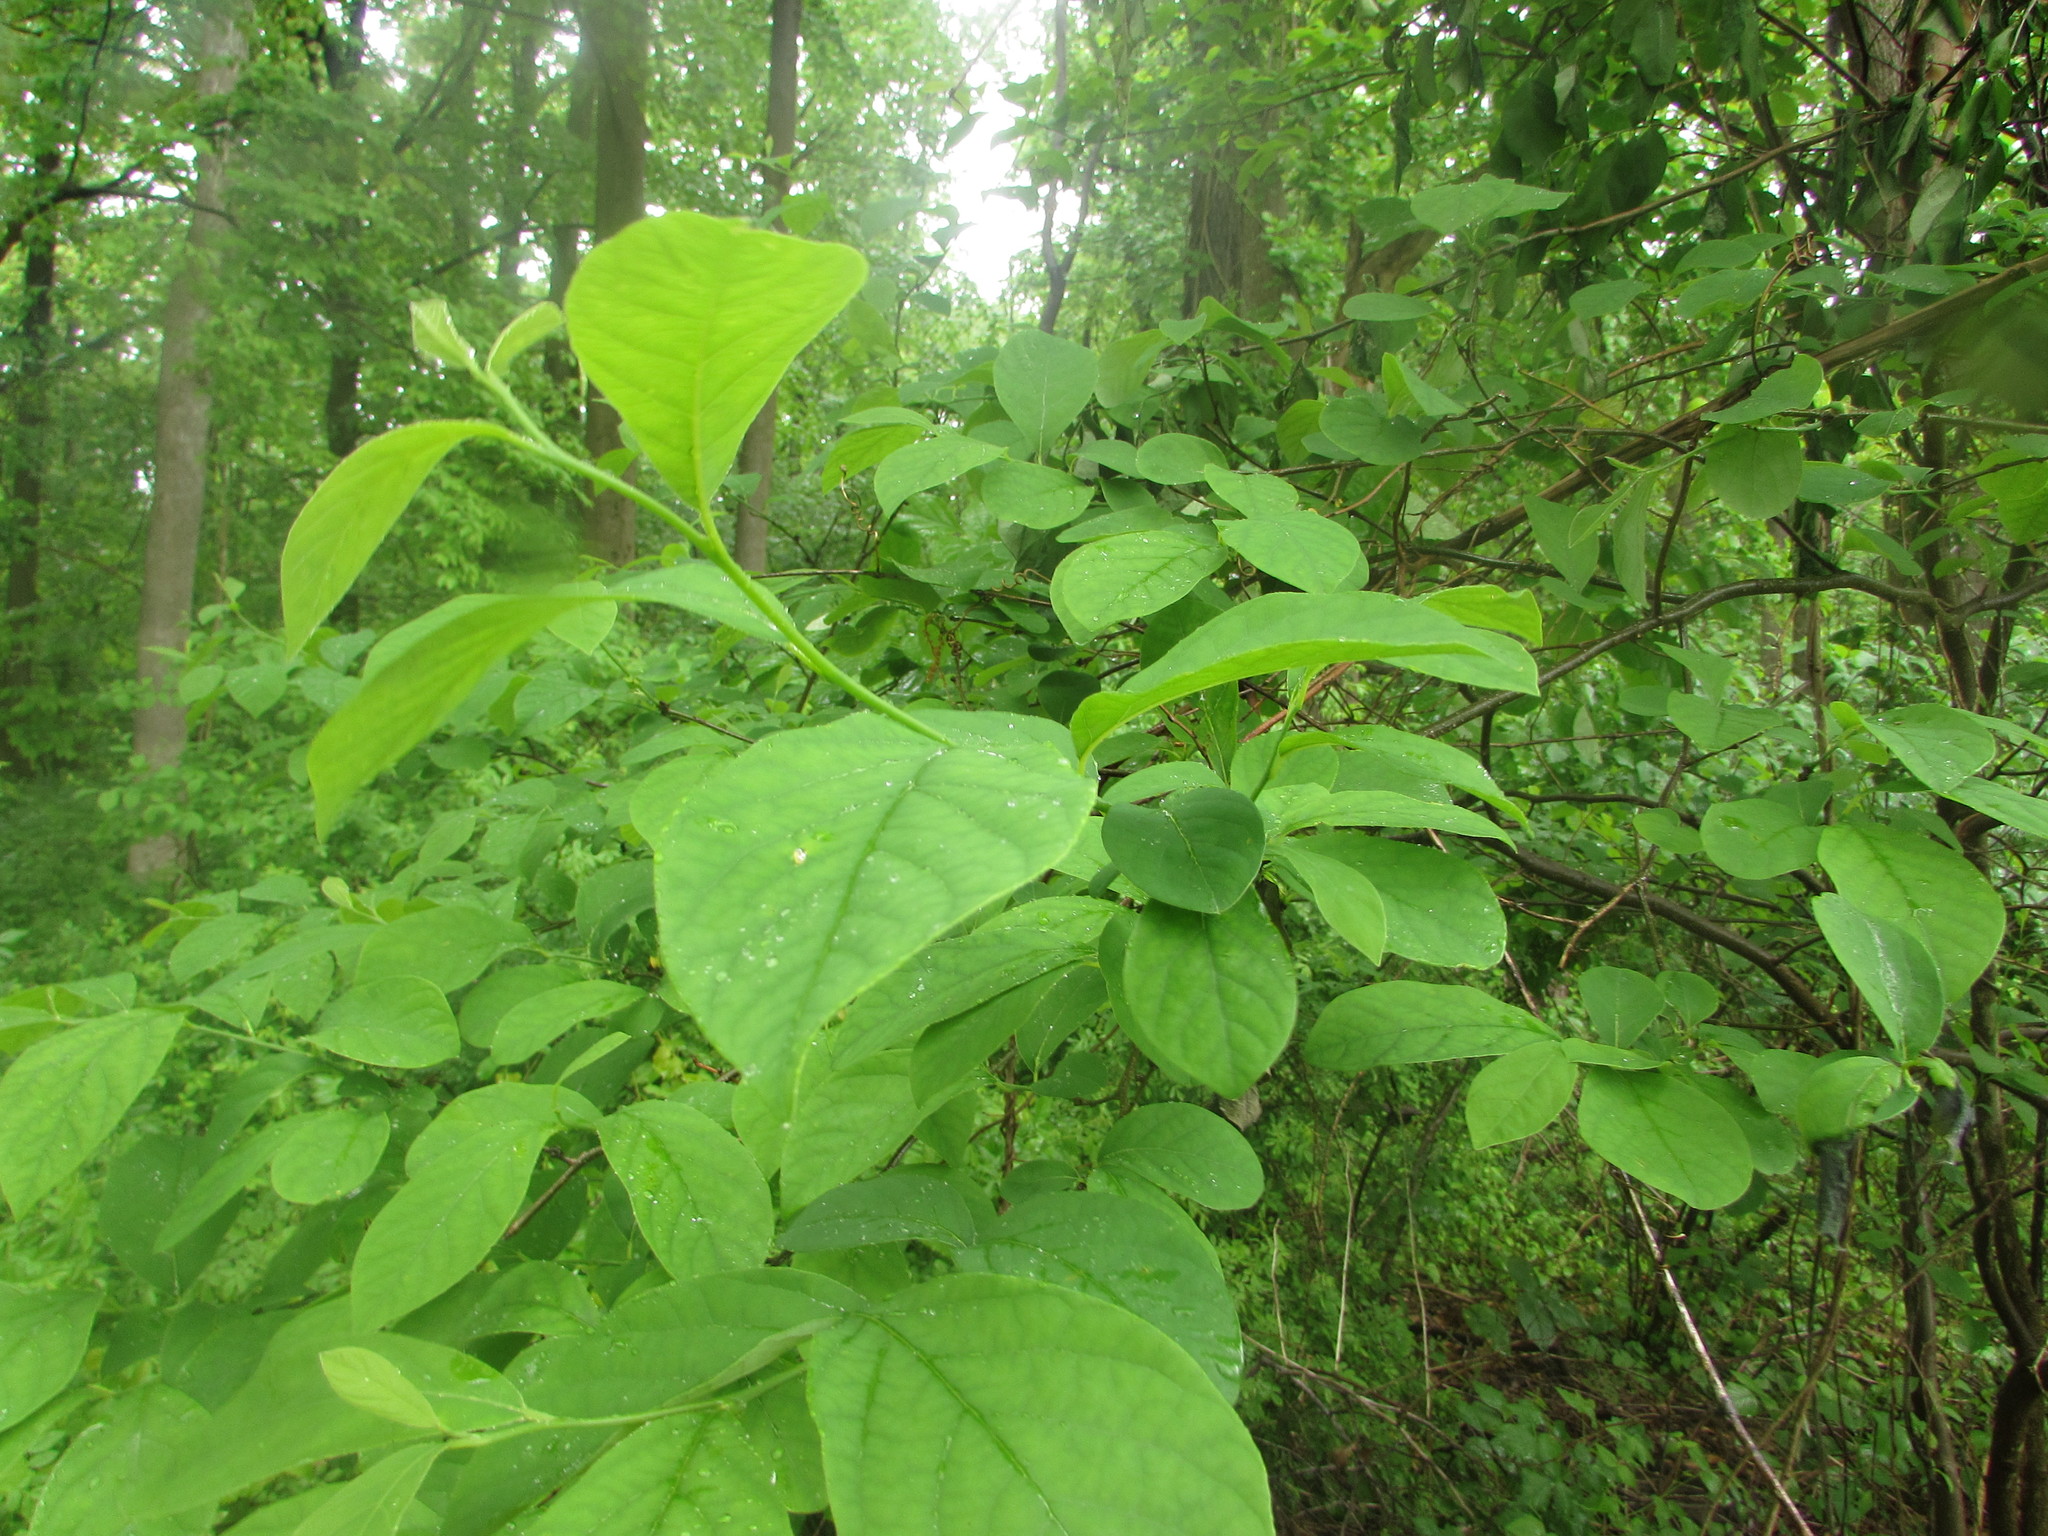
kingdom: Plantae
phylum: Tracheophyta
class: Magnoliopsida
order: Laurales
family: Lauraceae
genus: Lindera
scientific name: Lindera benzoin
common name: Spicebush
